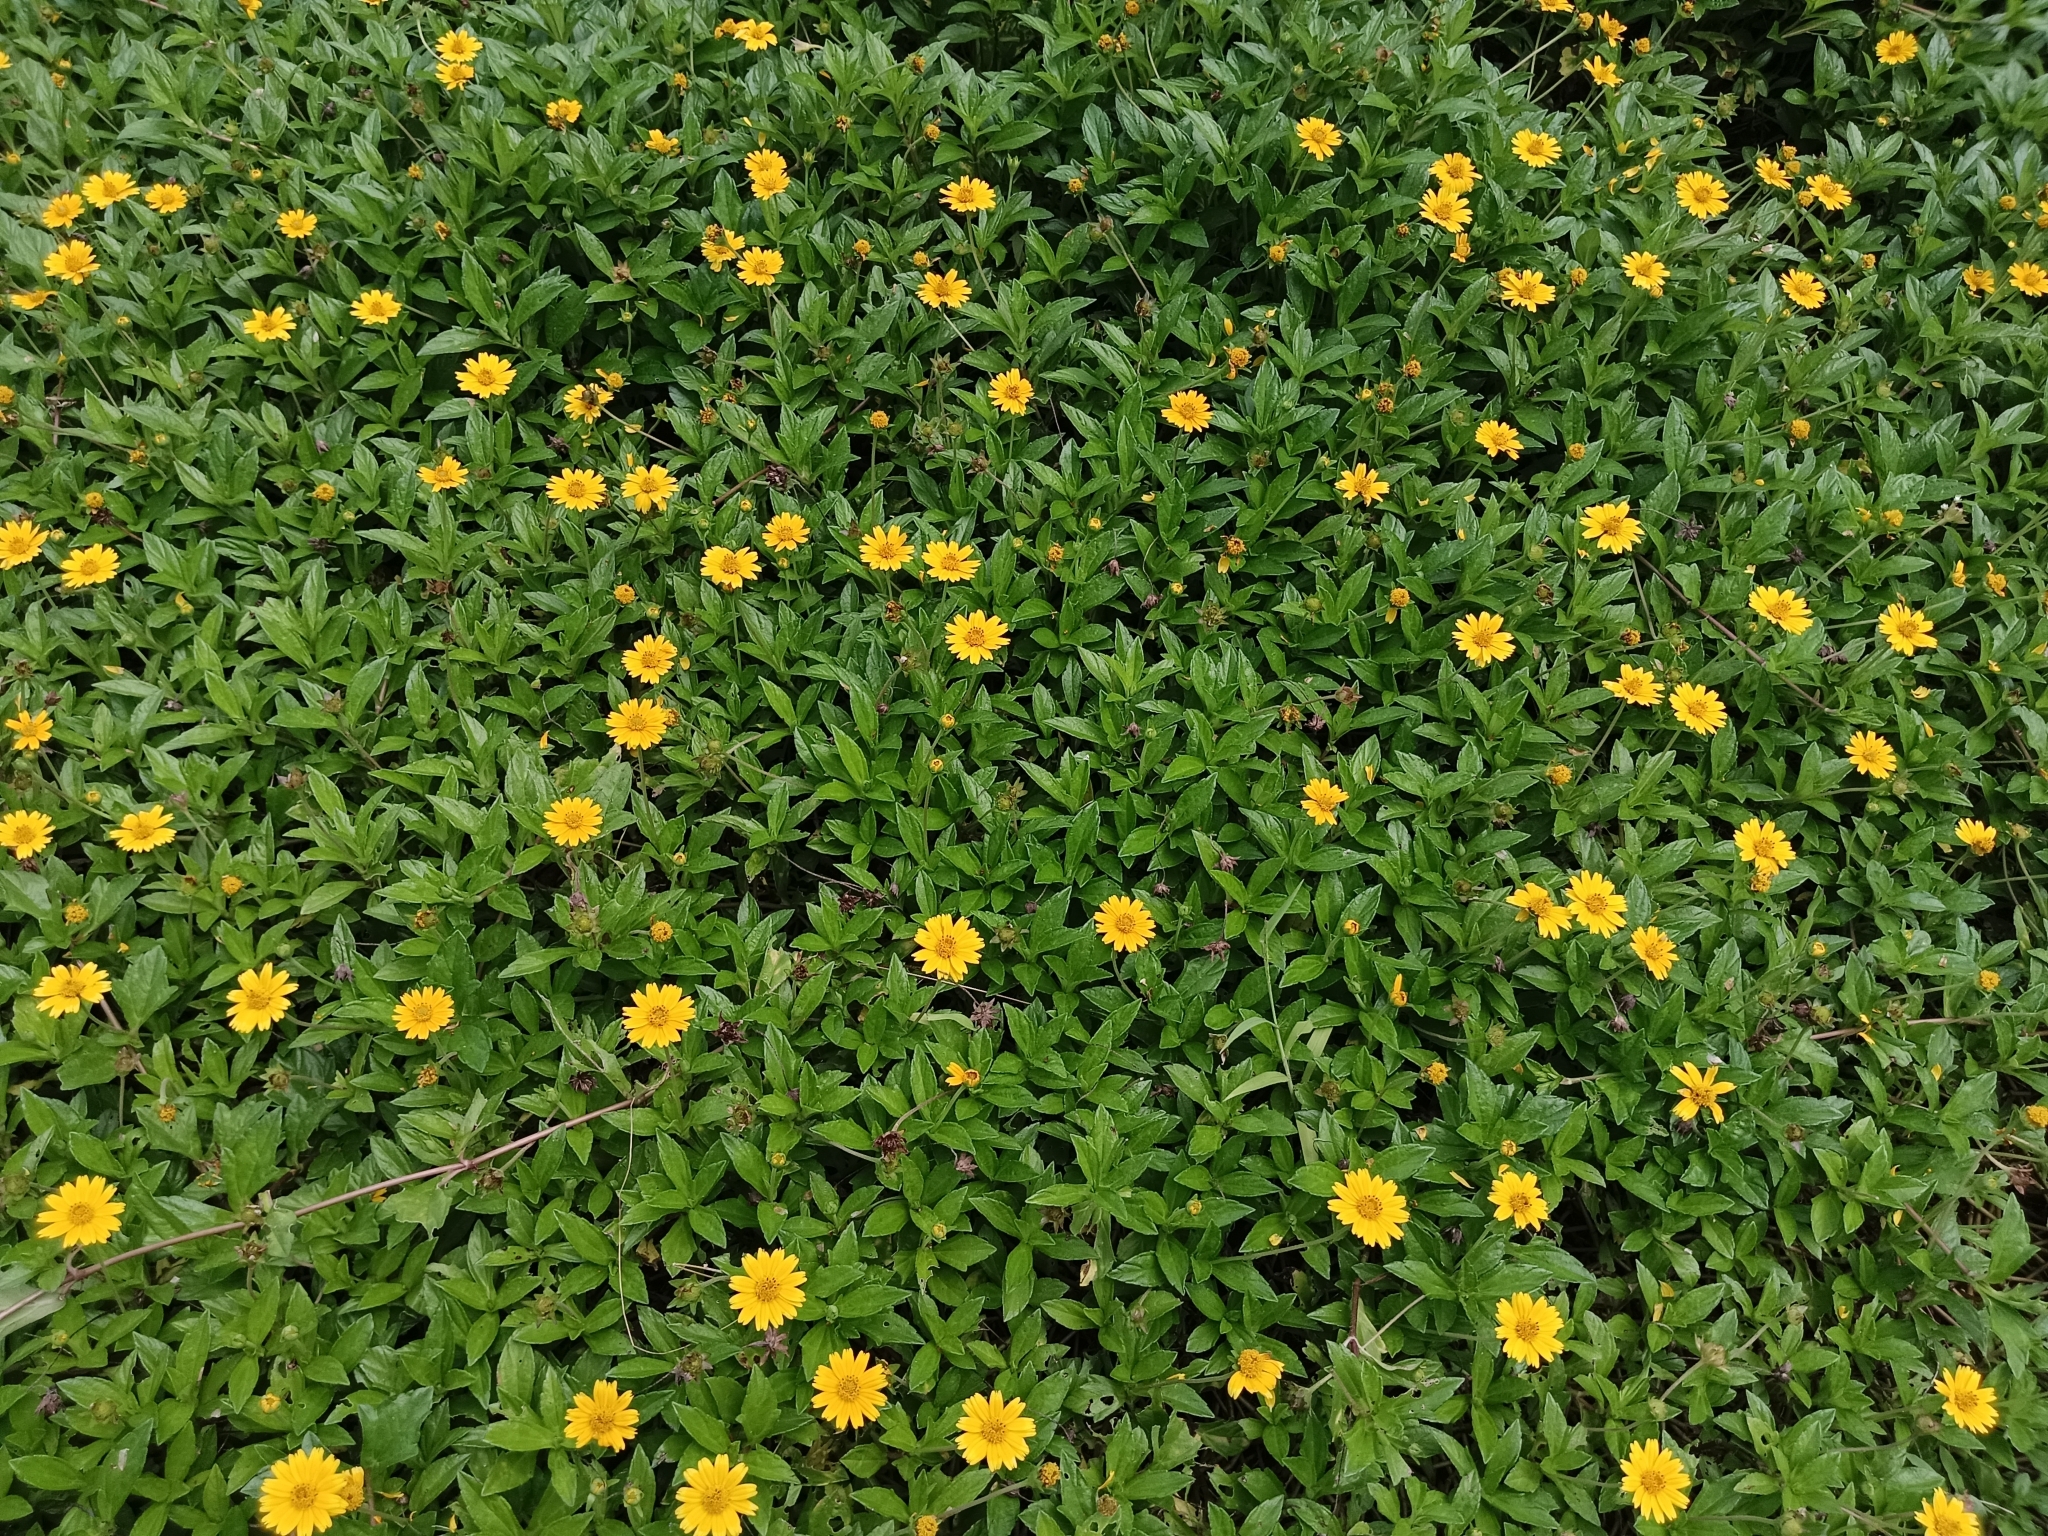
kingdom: Plantae
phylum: Tracheophyta
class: Magnoliopsida
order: Asterales
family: Asteraceae
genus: Sphagneticola
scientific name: Sphagneticola trilobata
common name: Bay biscayne creeping-oxeye
